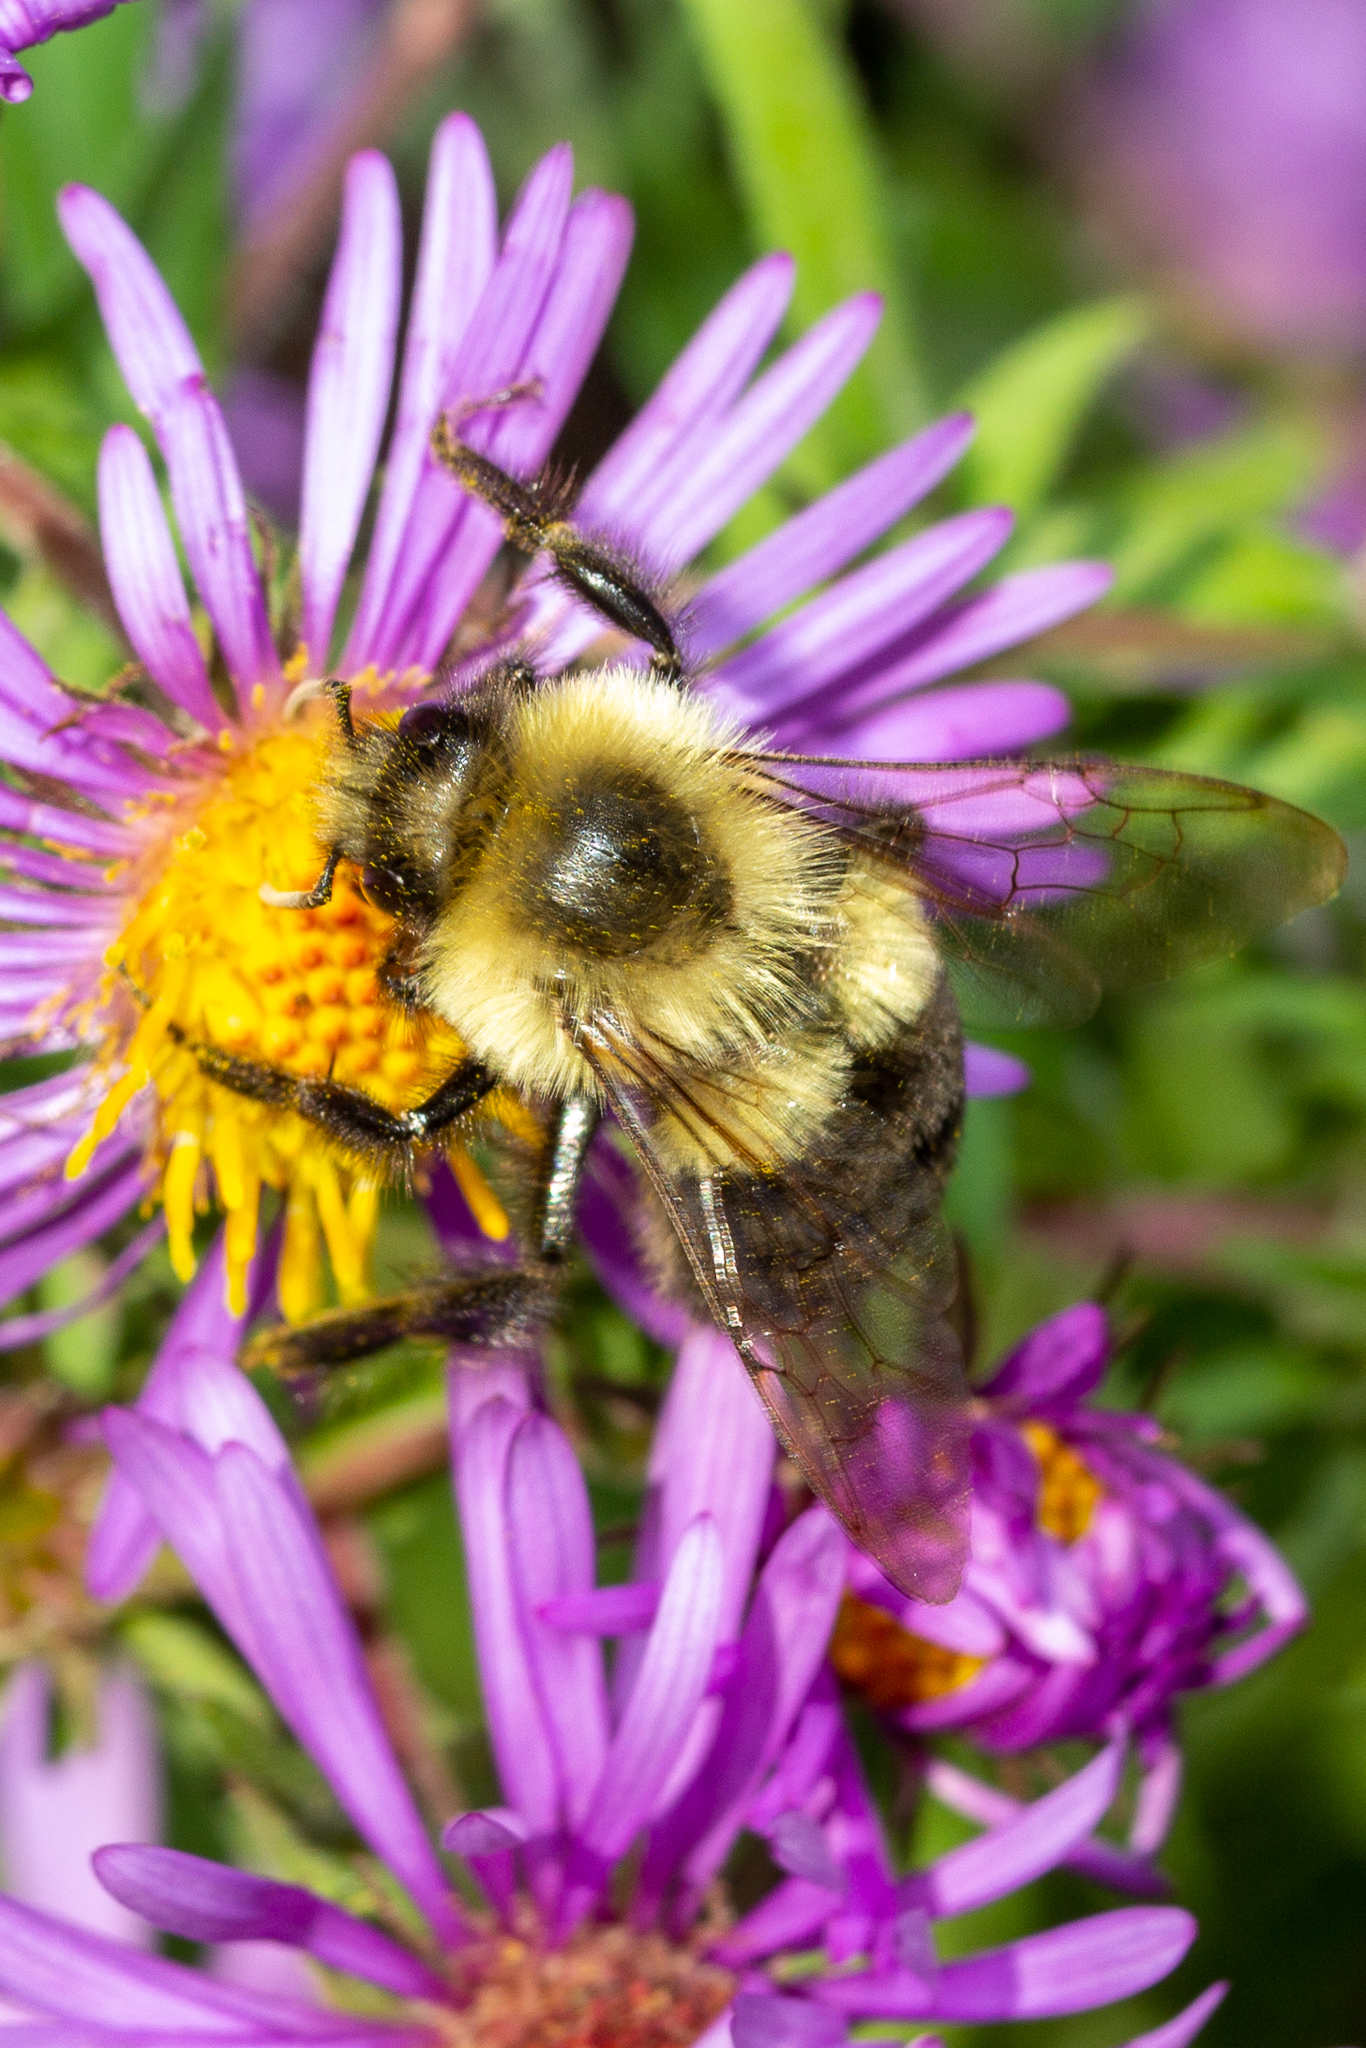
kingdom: Animalia
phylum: Arthropoda
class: Insecta
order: Hymenoptera
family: Apidae
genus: Bombus
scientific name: Bombus impatiens
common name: Common eastern bumble bee
